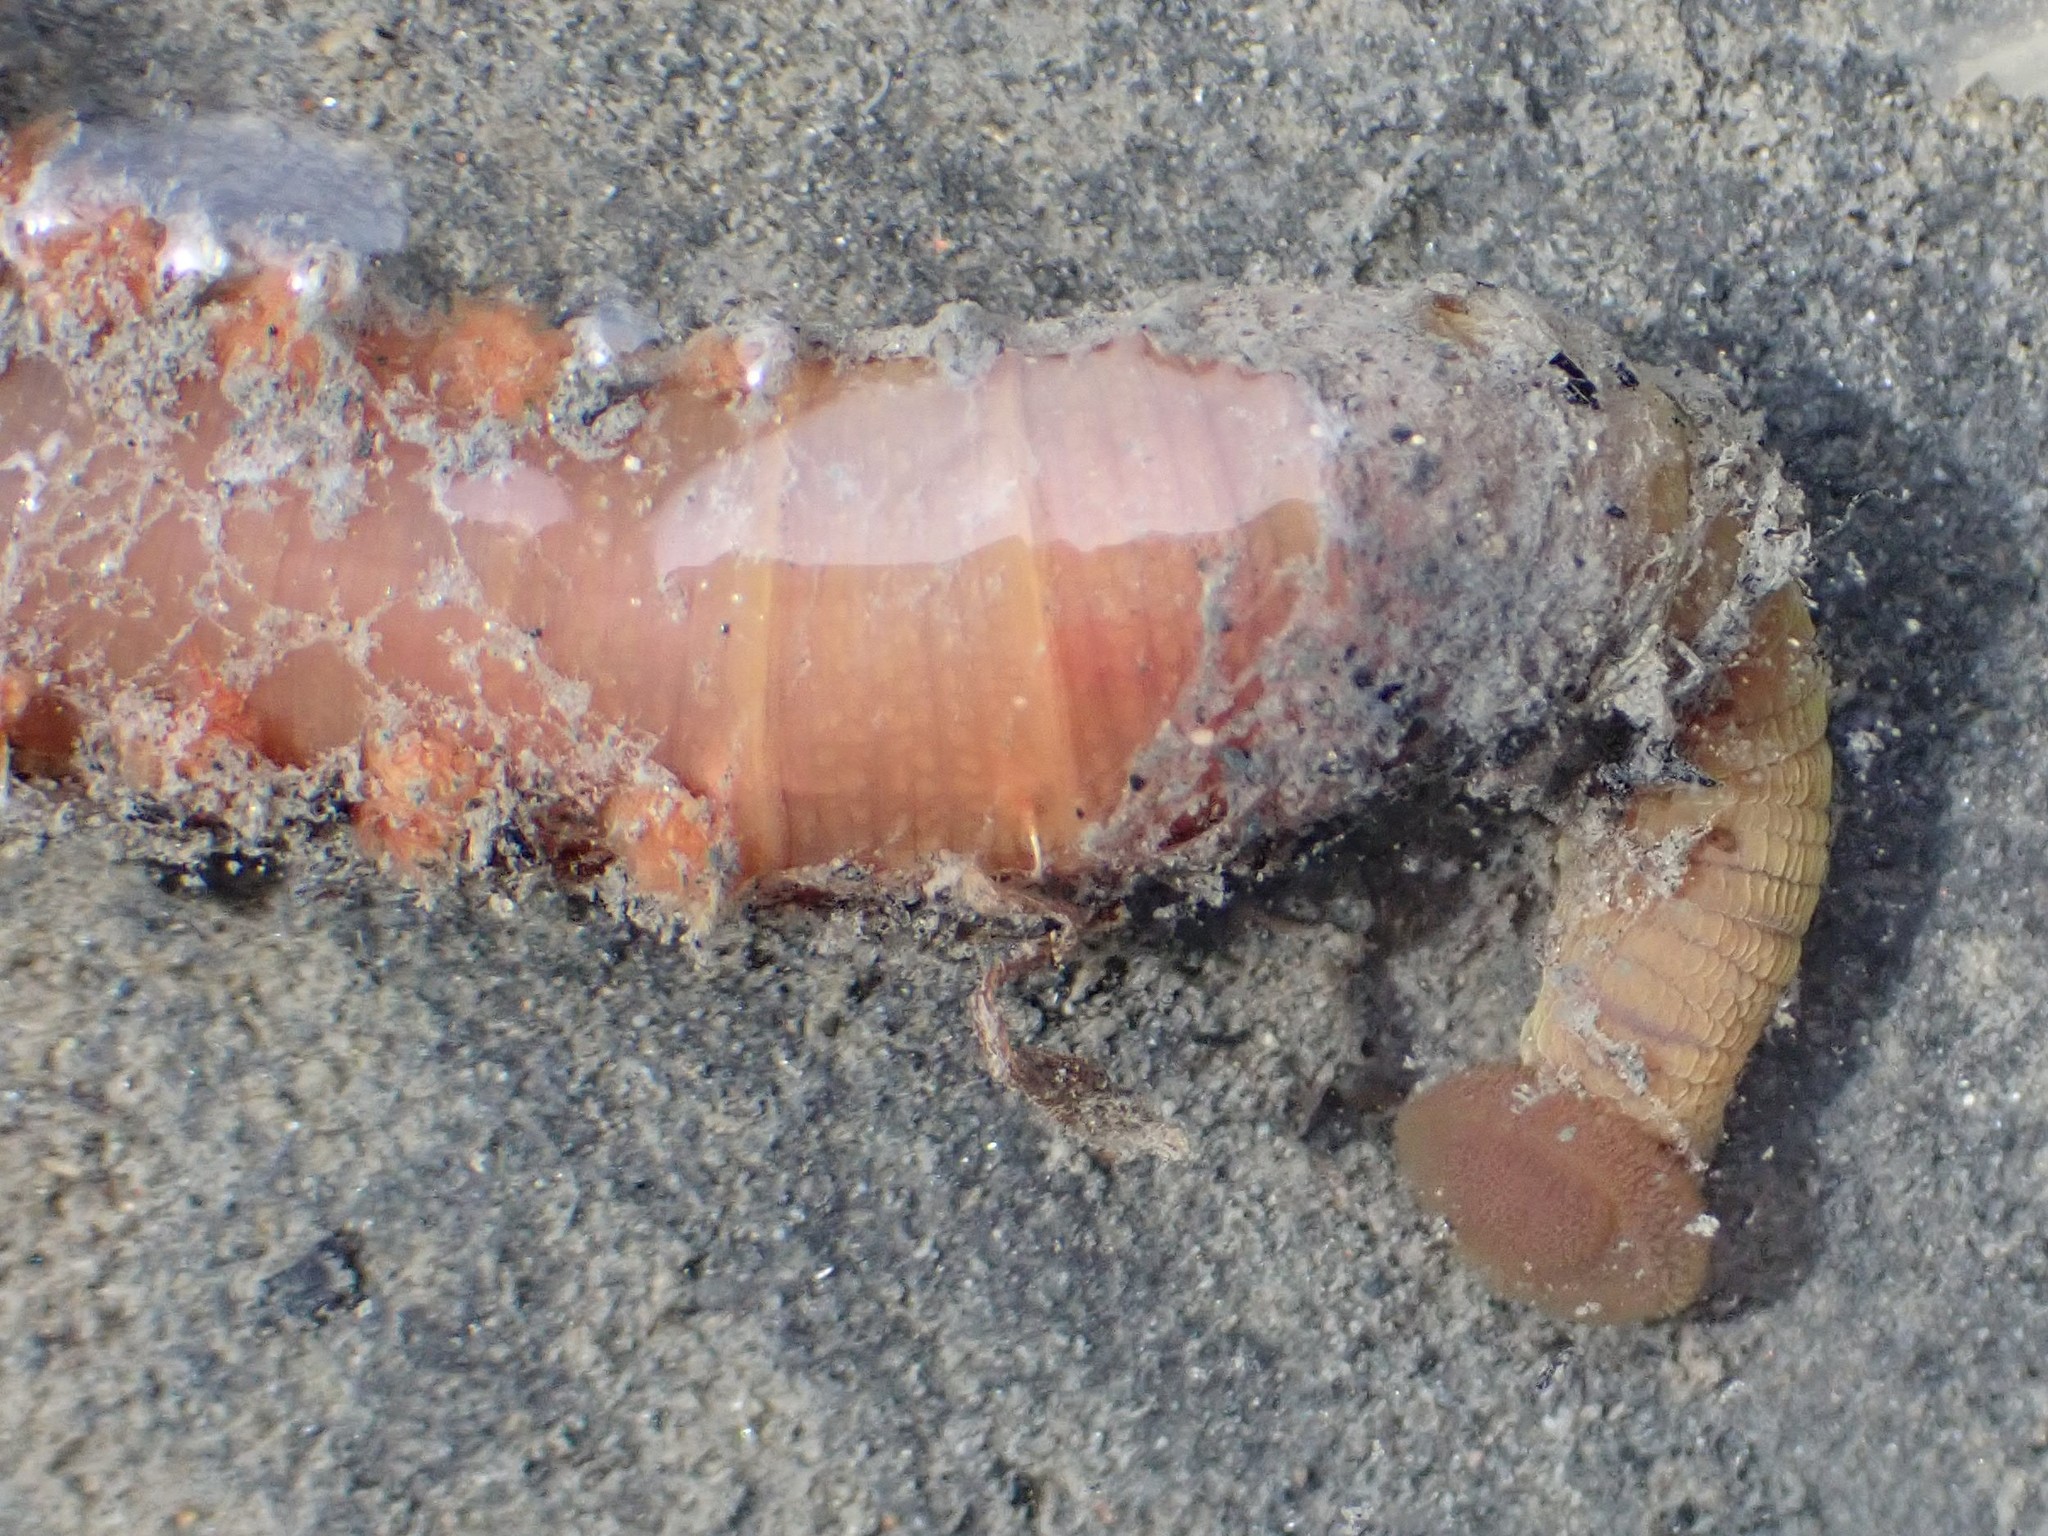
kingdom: Animalia
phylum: Annelida
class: Polychaeta
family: Arenicolidae
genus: Abarenicola
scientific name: Abarenicola pacifica
